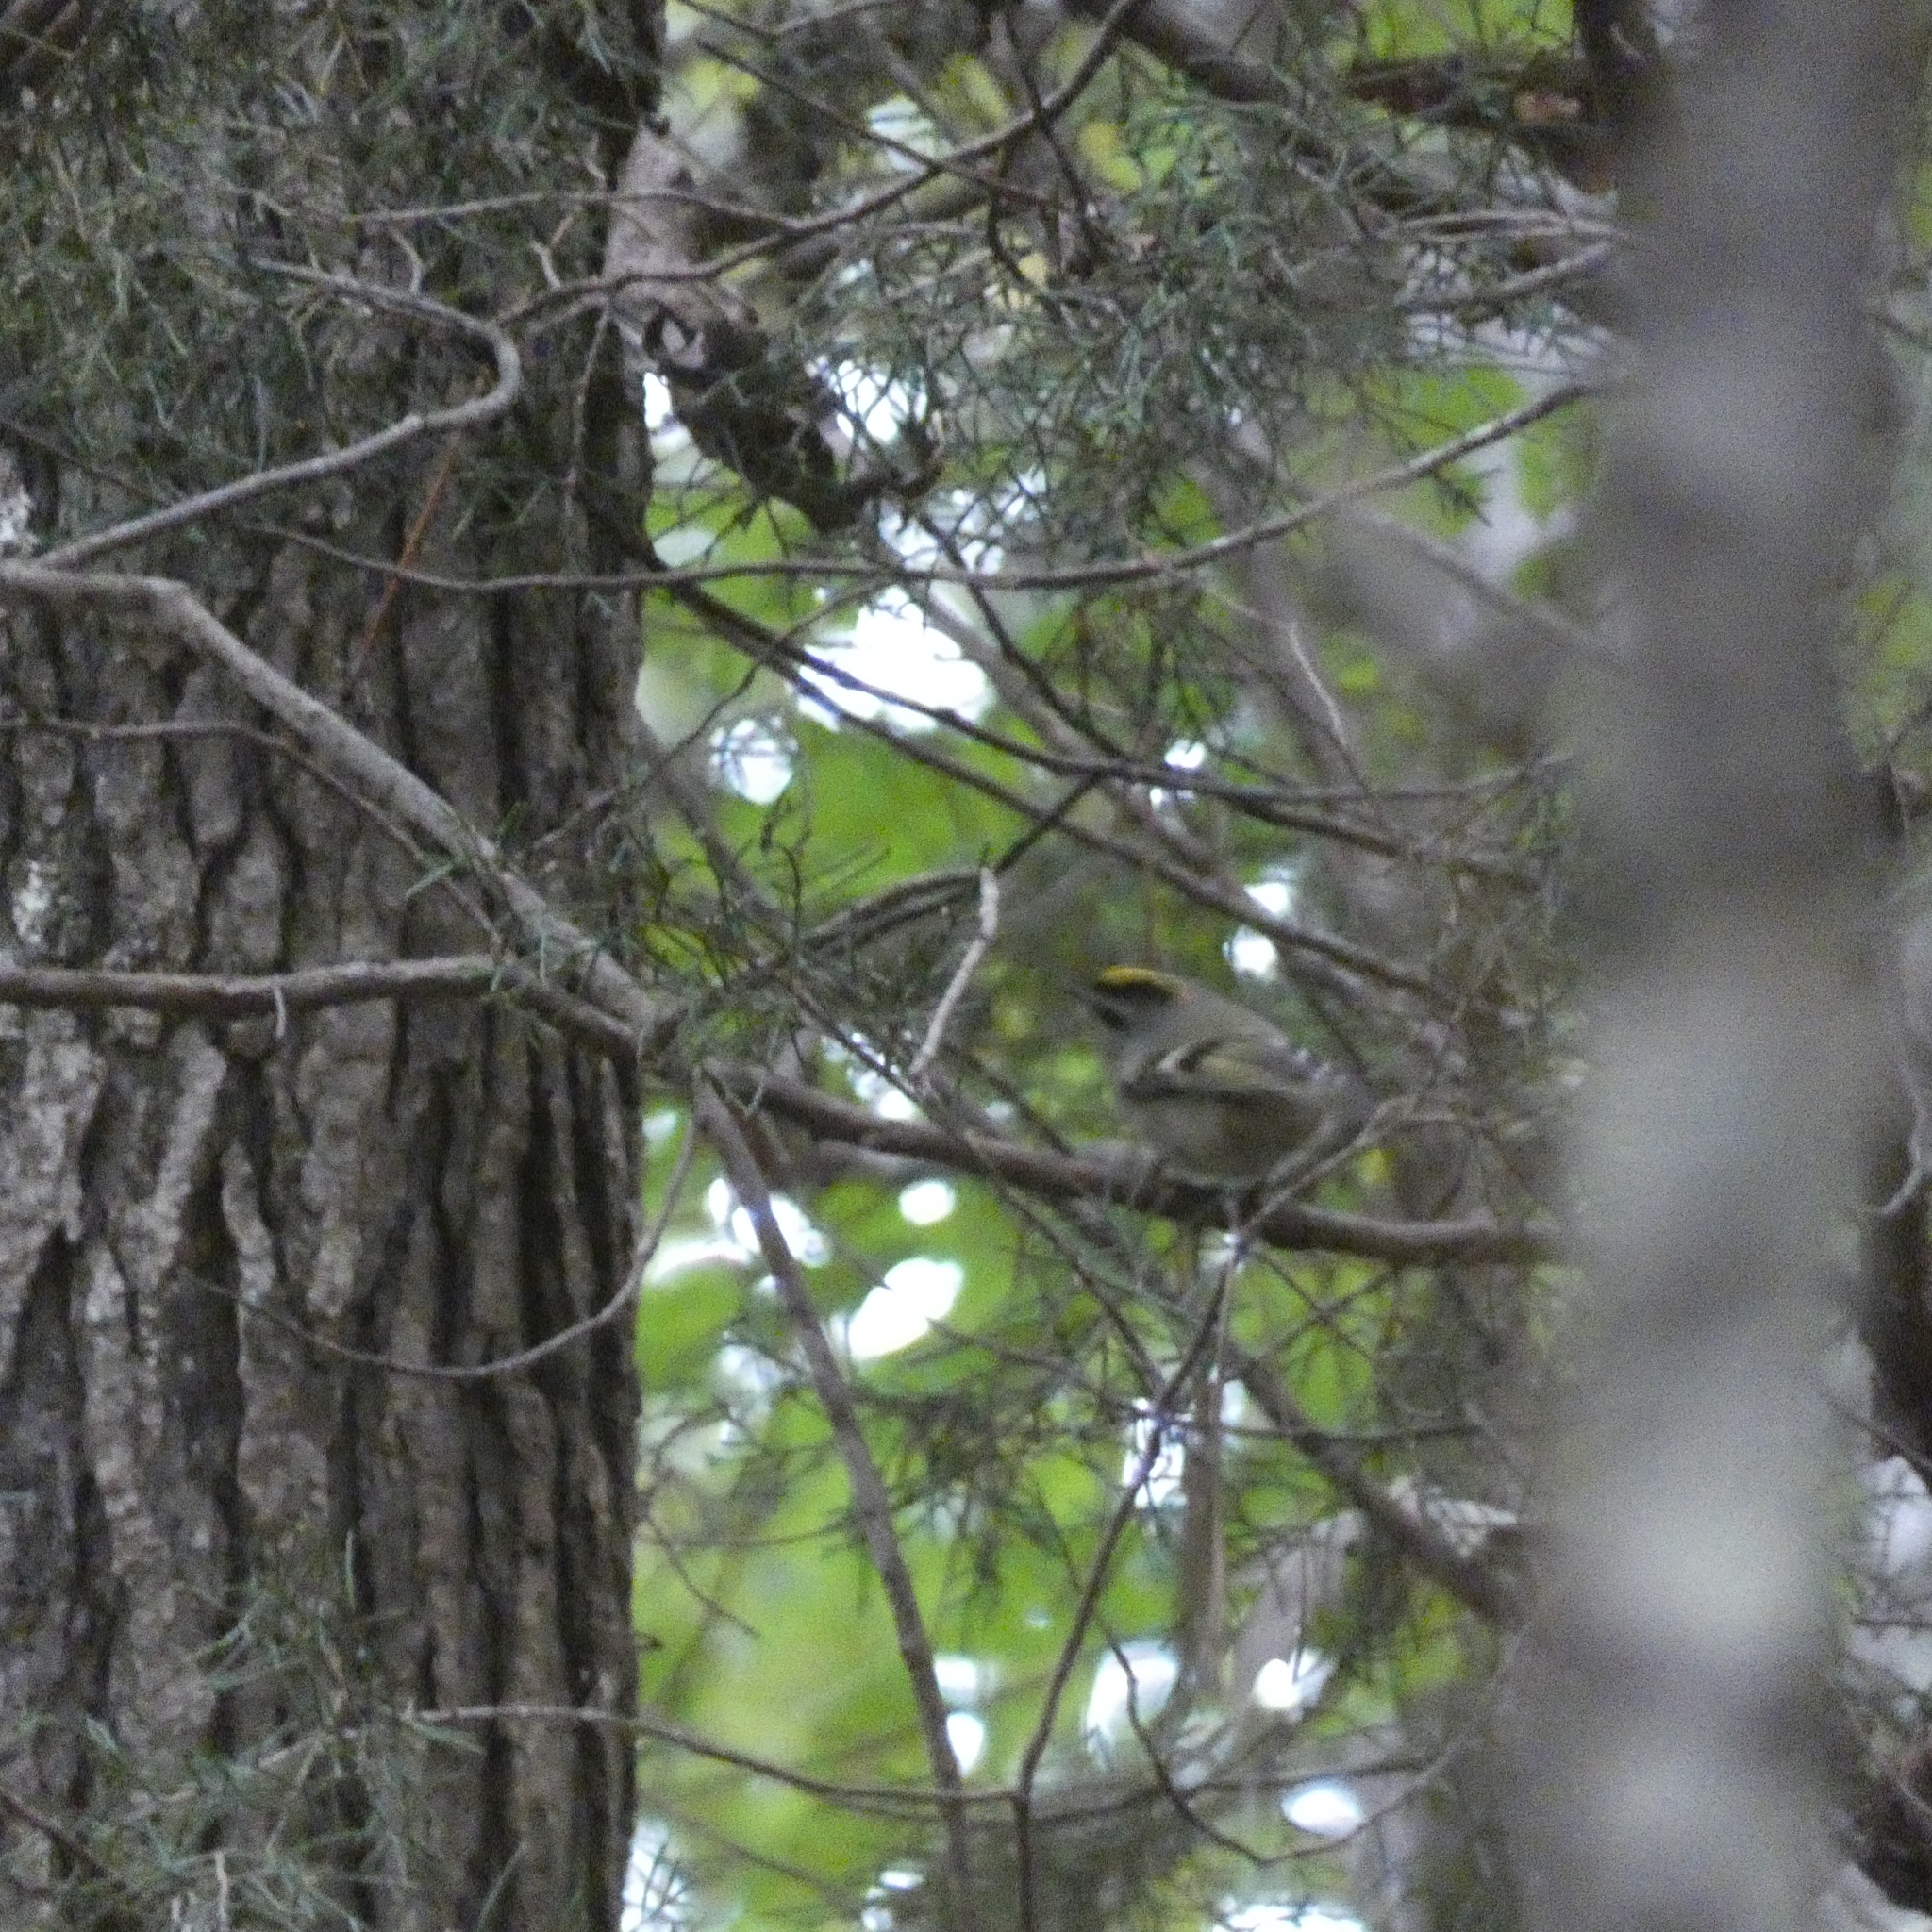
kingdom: Animalia
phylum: Chordata
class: Aves
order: Passeriformes
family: Regulidae
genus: Regulus
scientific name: Regulus satrapa
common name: Golden-crowned kinglet
